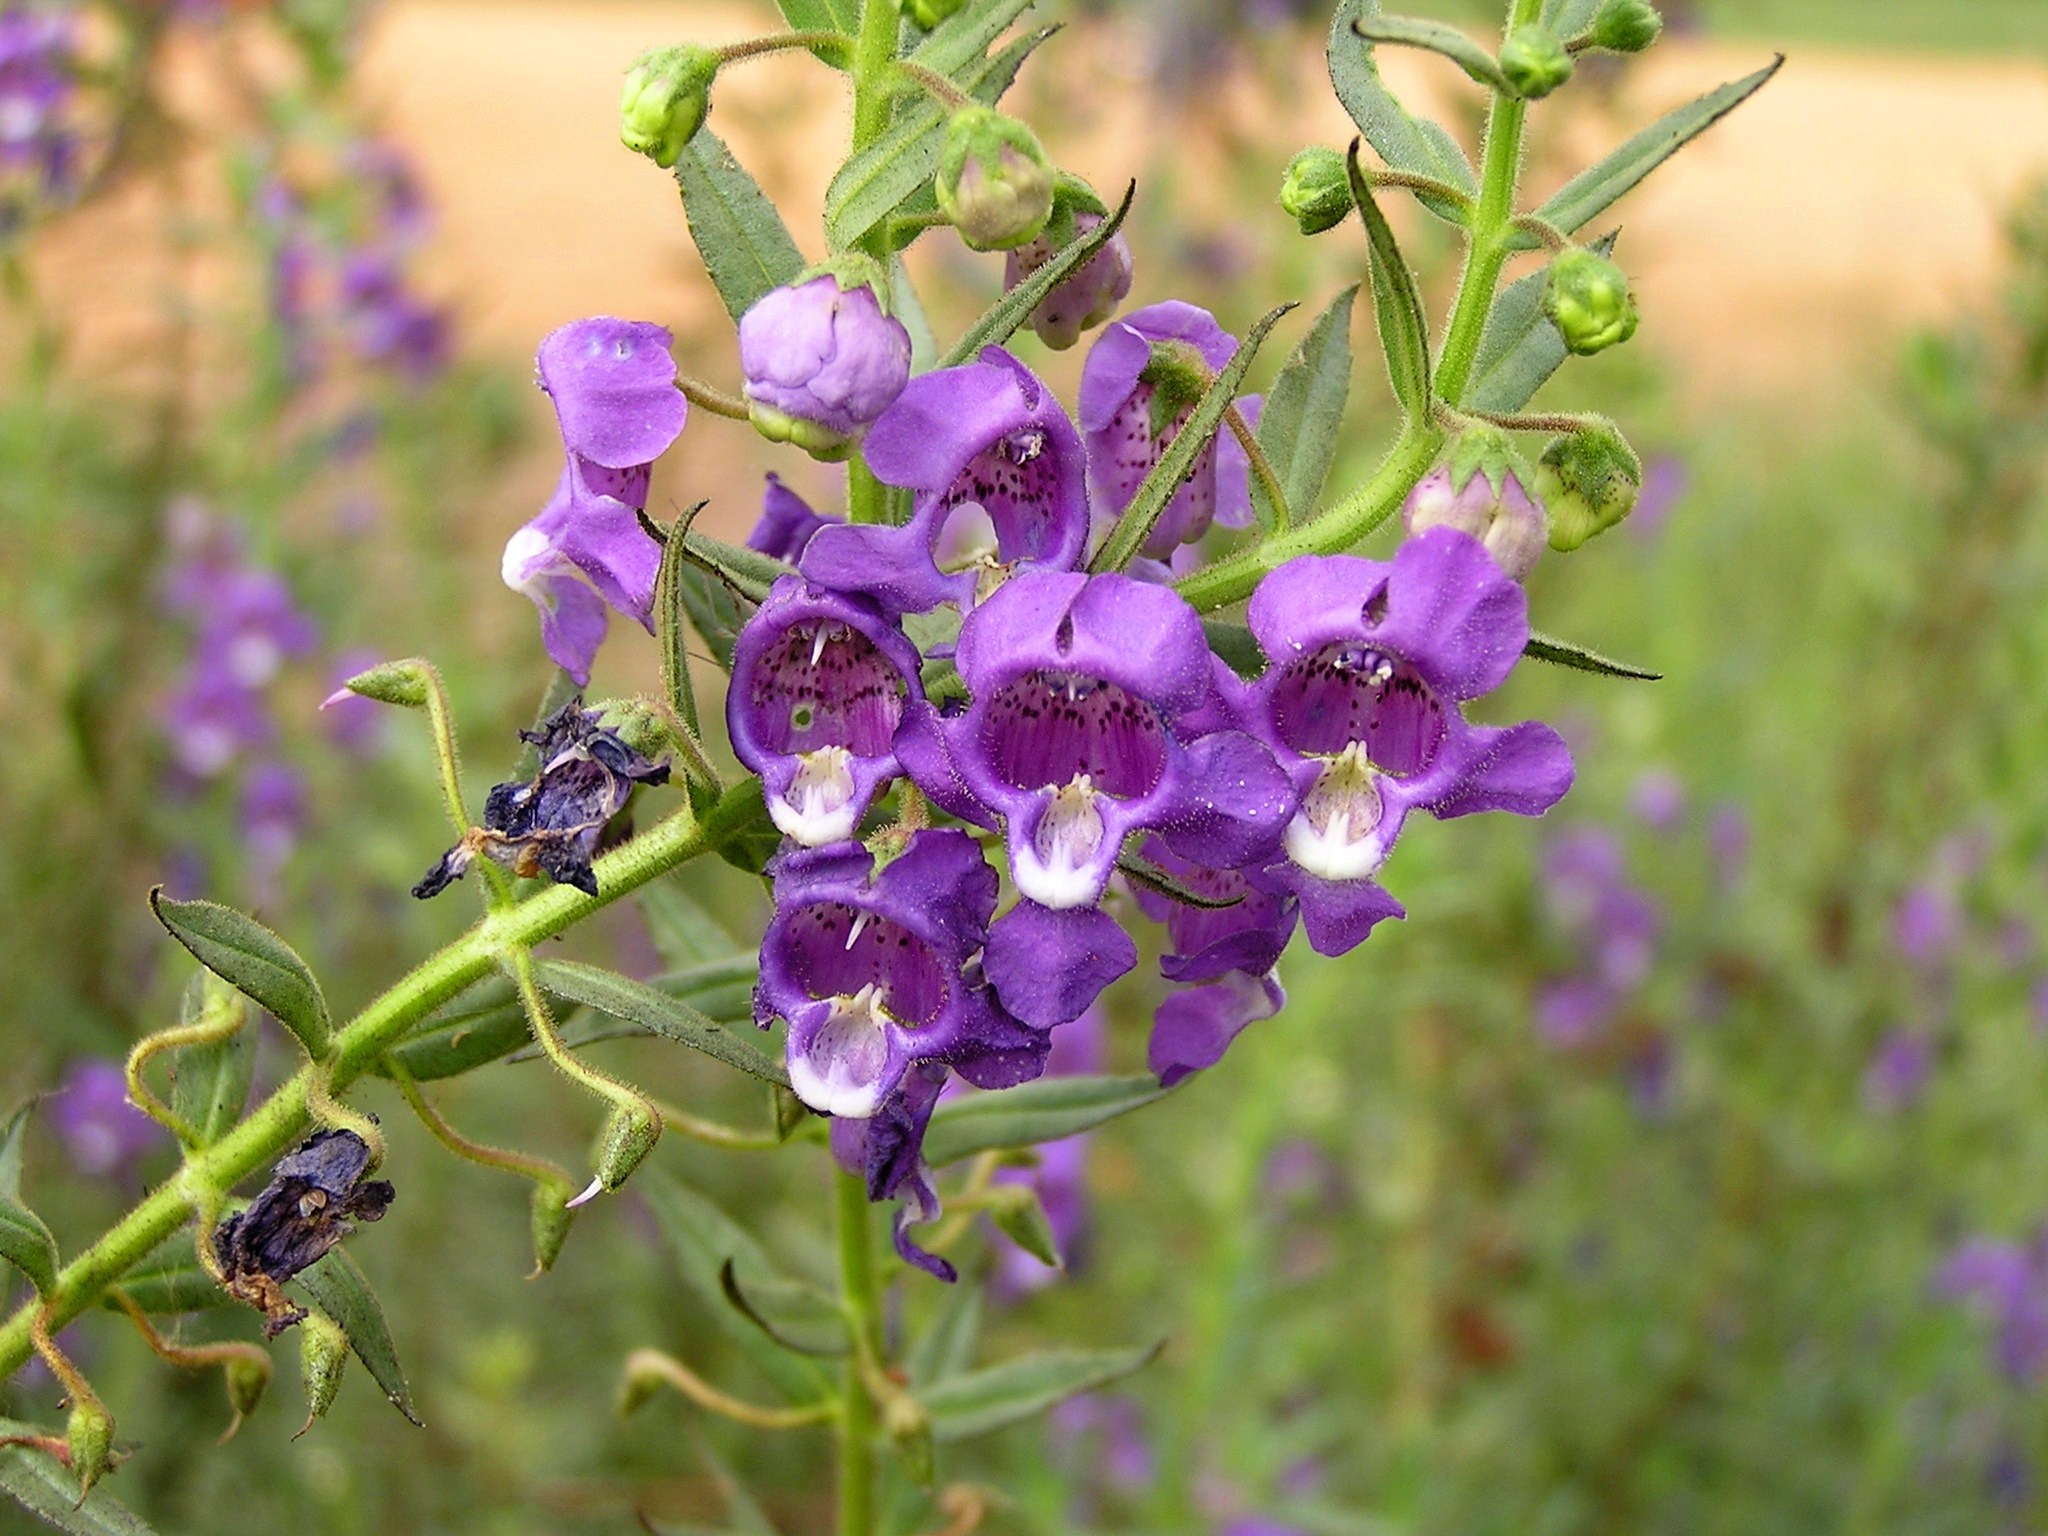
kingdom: Plantae
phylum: Tracheophyta
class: Magnoliopsida
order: Lamiales
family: Plantaginaceae
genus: Angelonia
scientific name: Angelonia angustifolia
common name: Narrowleaf angelon
